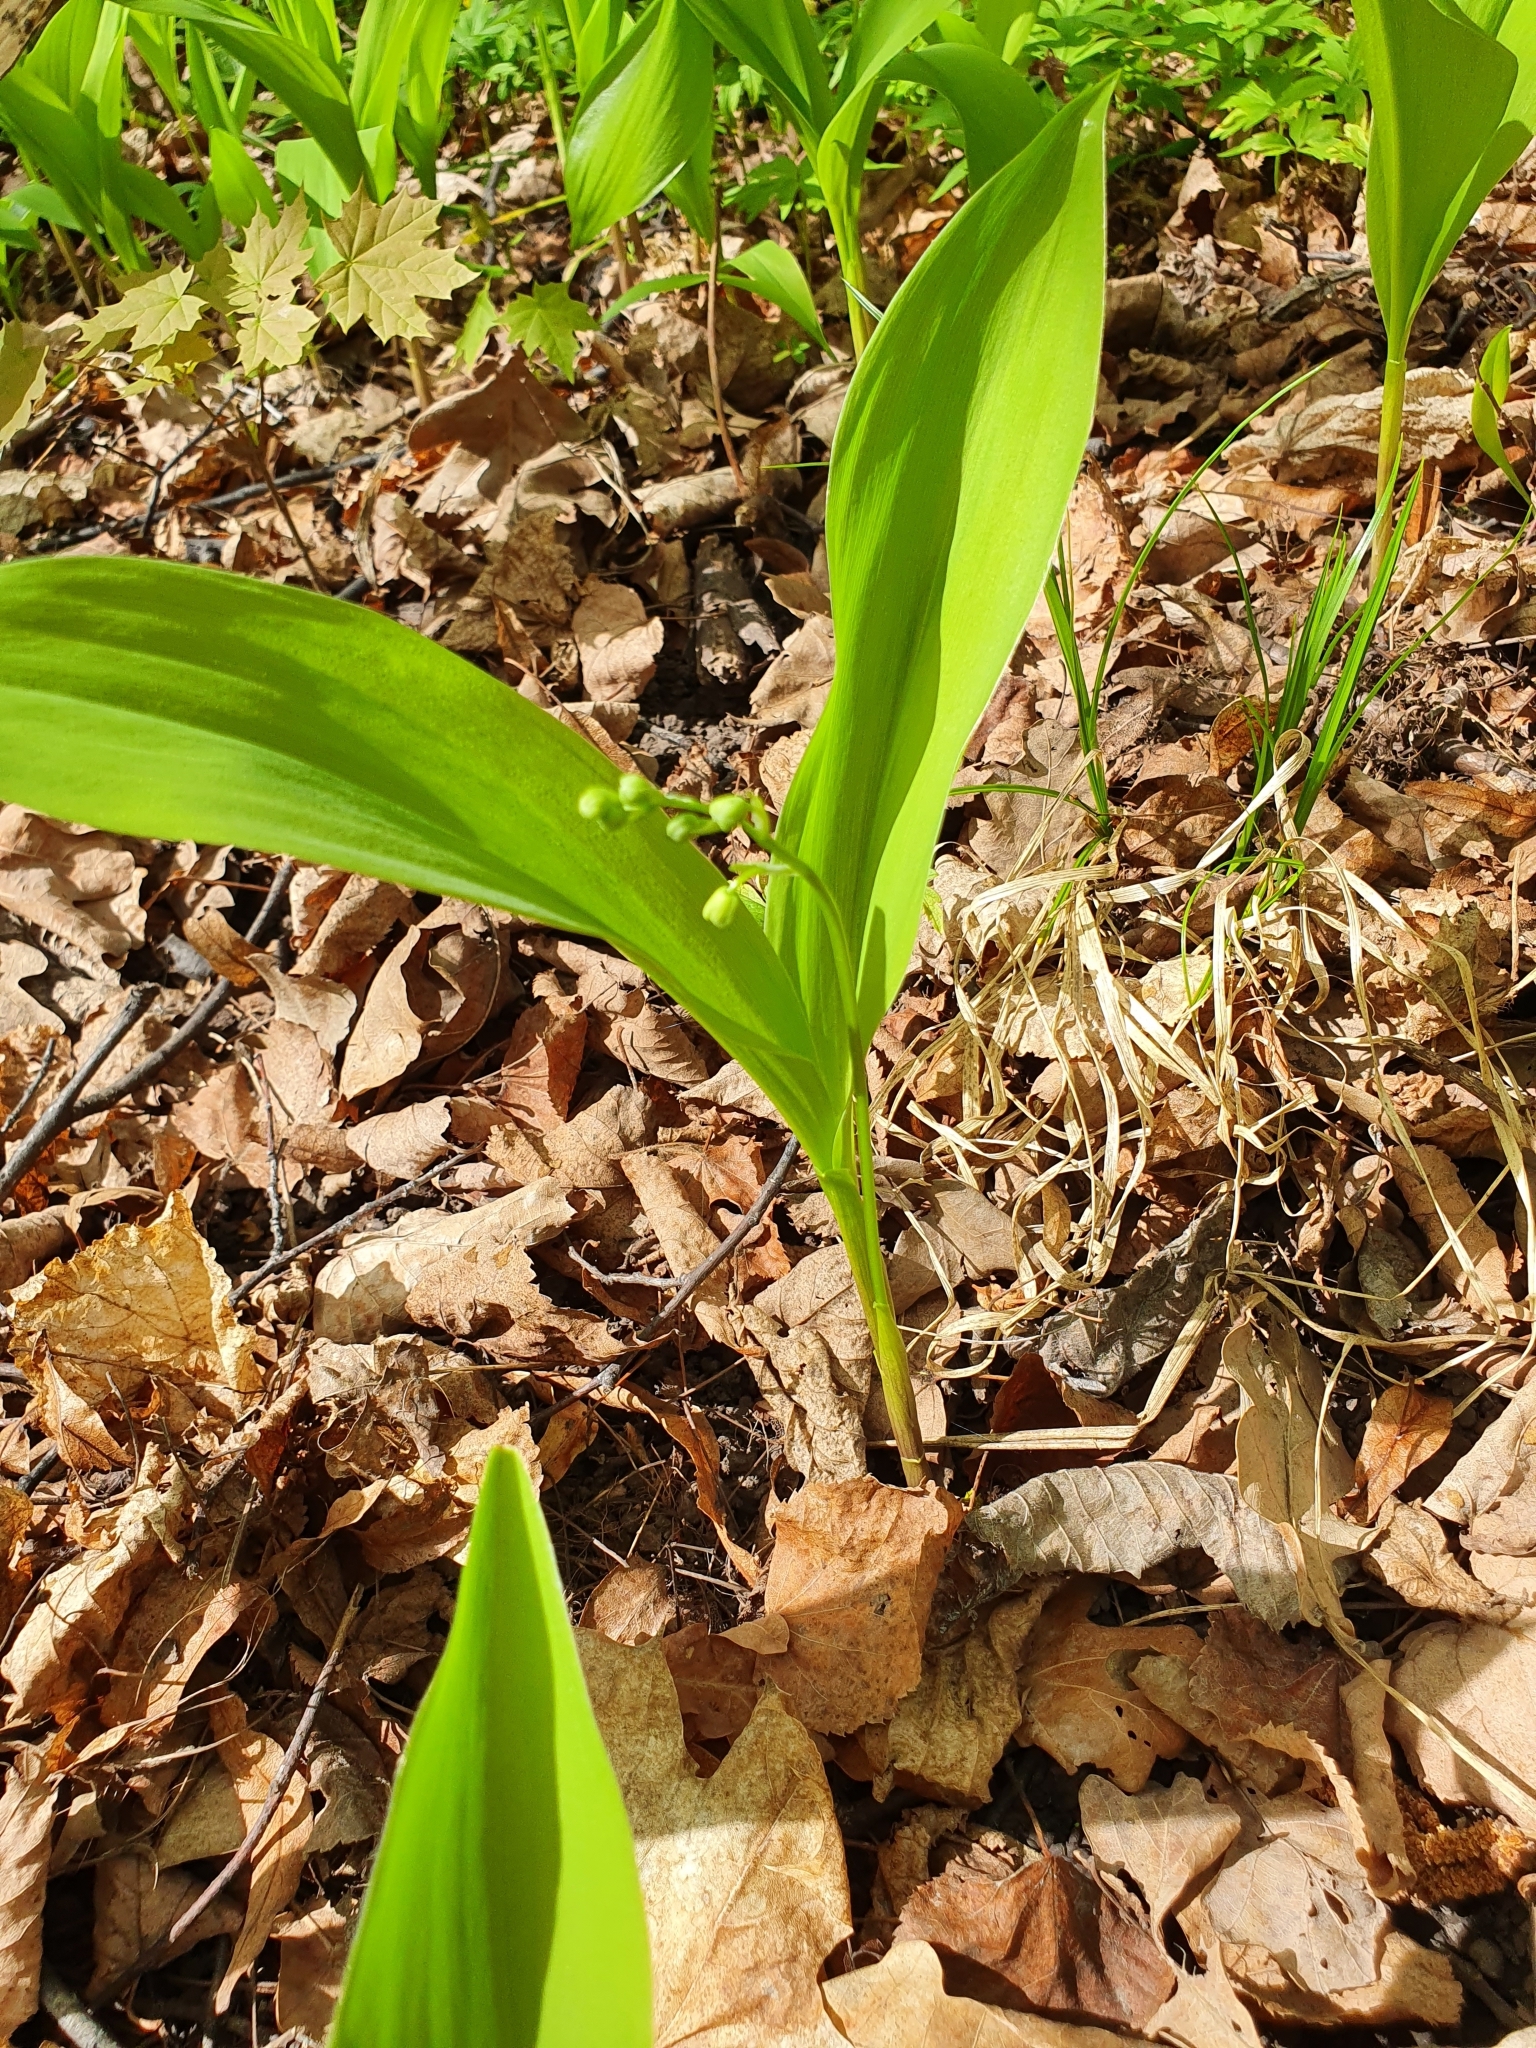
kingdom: Plantae
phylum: Tracheophyta
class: Liliopsida
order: Asparagales
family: Asparagaceae
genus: Convallaria
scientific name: Convallaria majalis
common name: Lily-of-the-valley
